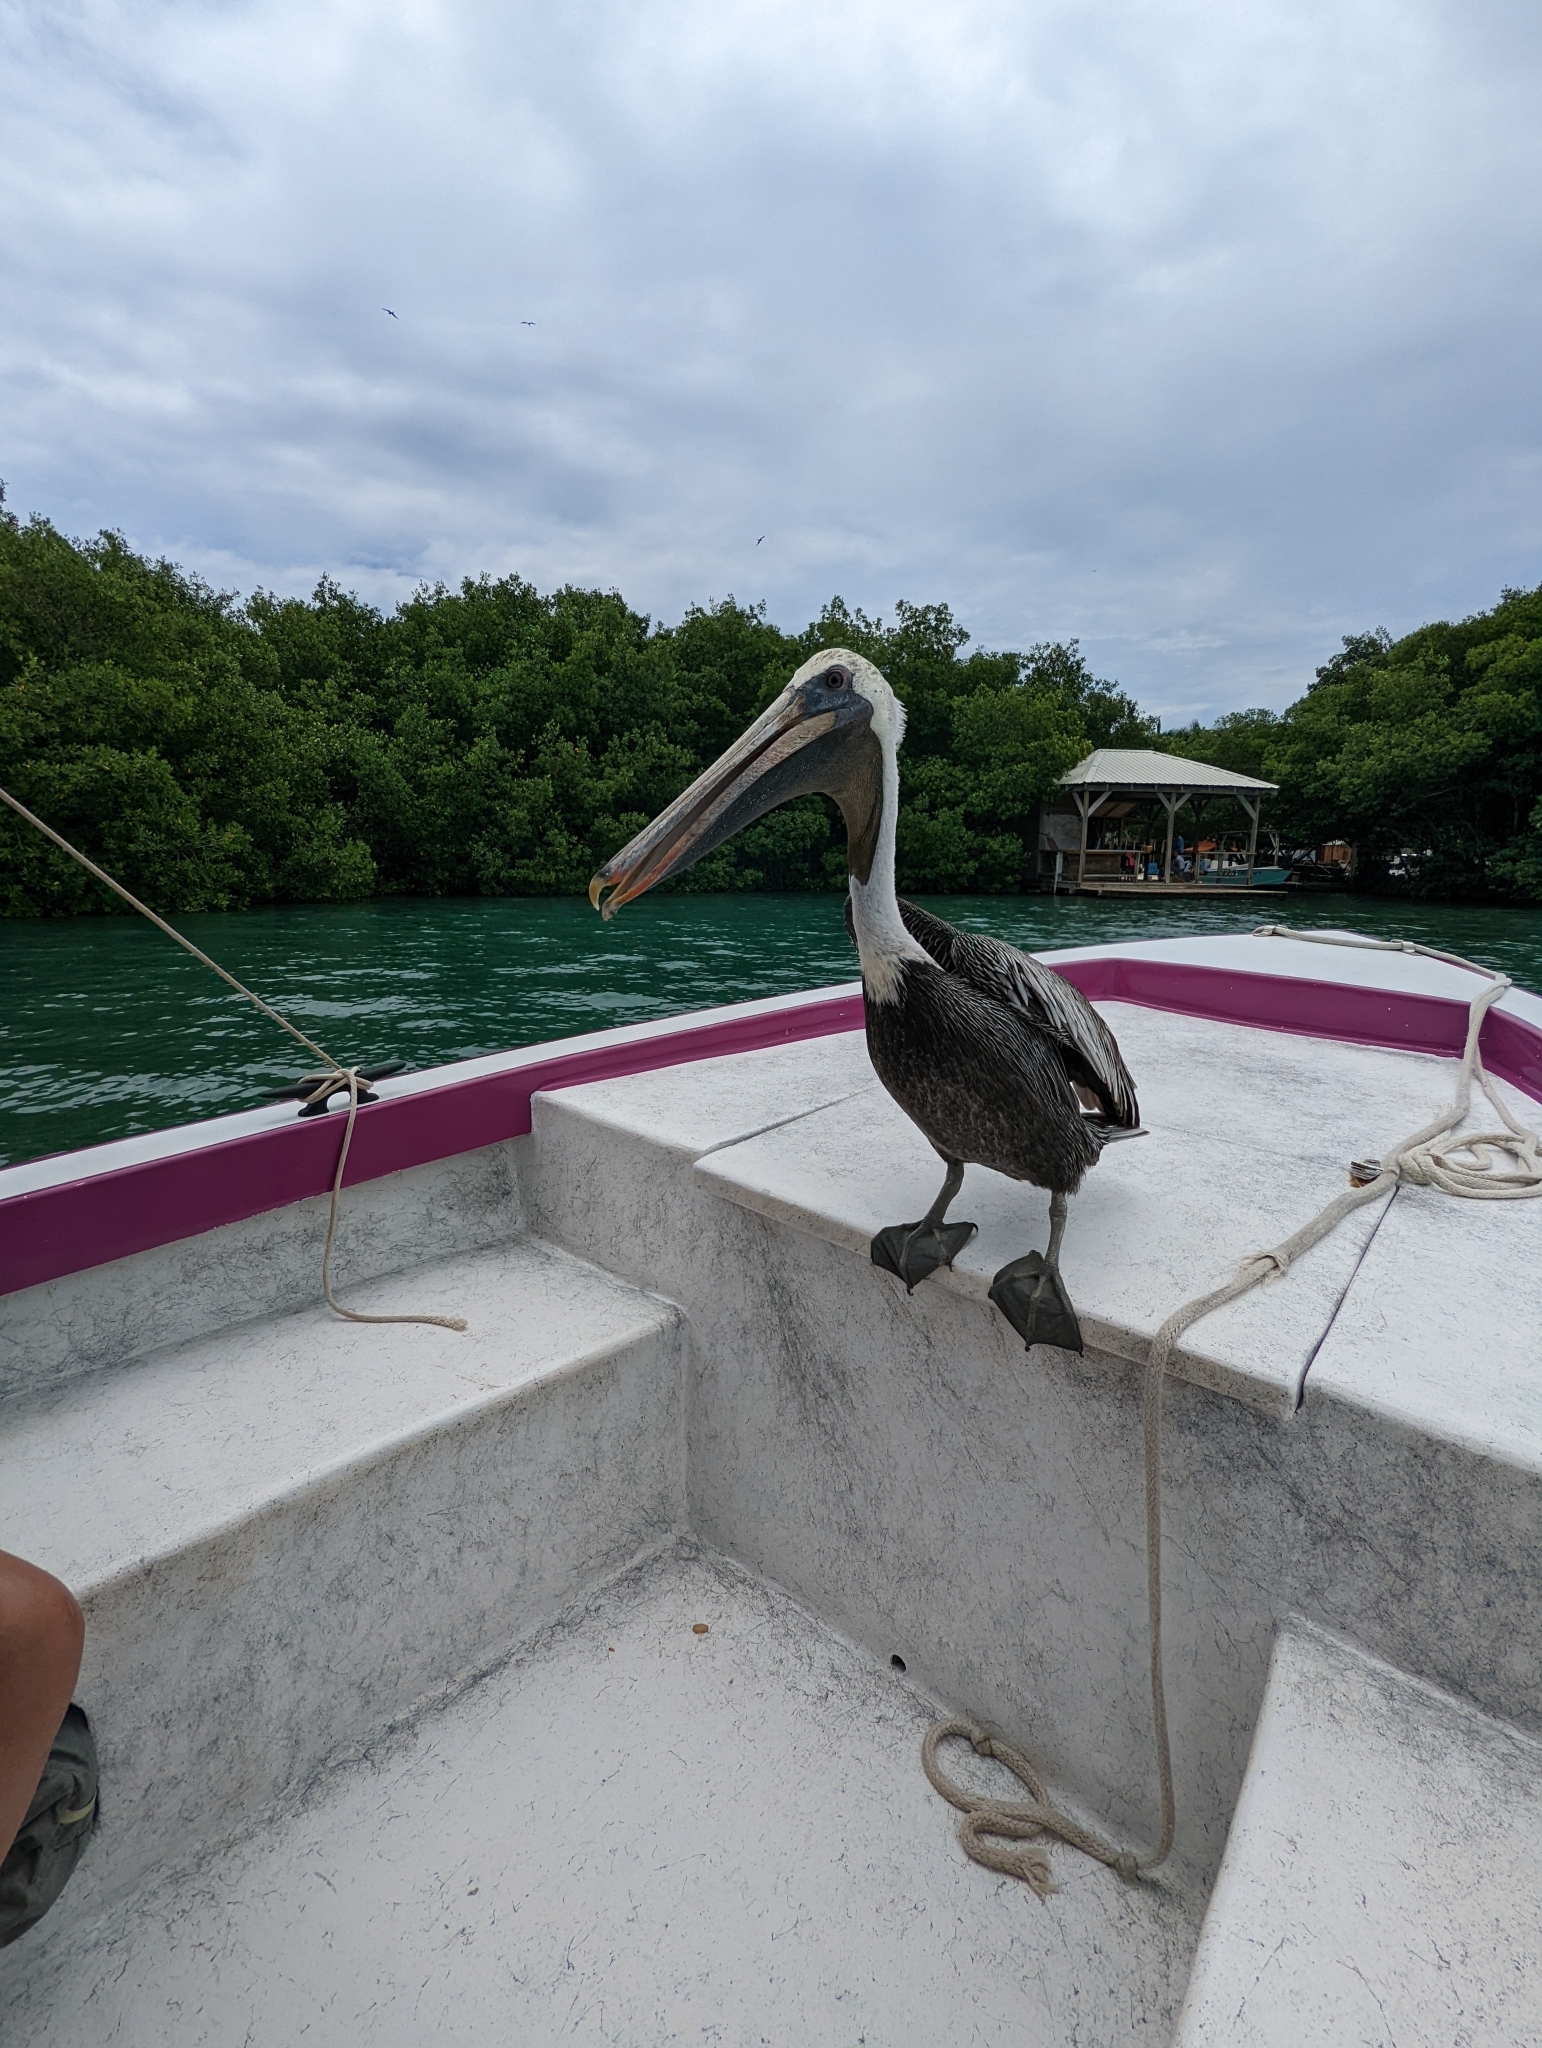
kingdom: Animalia
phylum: Chordata
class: Aves
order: Pelecaniformes
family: Pelecanidae
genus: Pelecanus
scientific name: Pelecanus occidentalis
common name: Brown pelican
